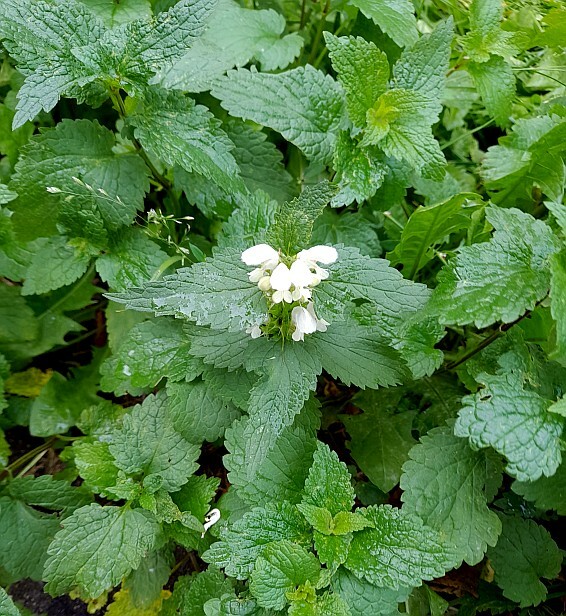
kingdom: Plantae
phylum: Tracheophyta
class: Magnoliopsida
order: Lamiales
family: Lamiaceae
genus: Lamium
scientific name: Lamium album
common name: White dead-nettle
